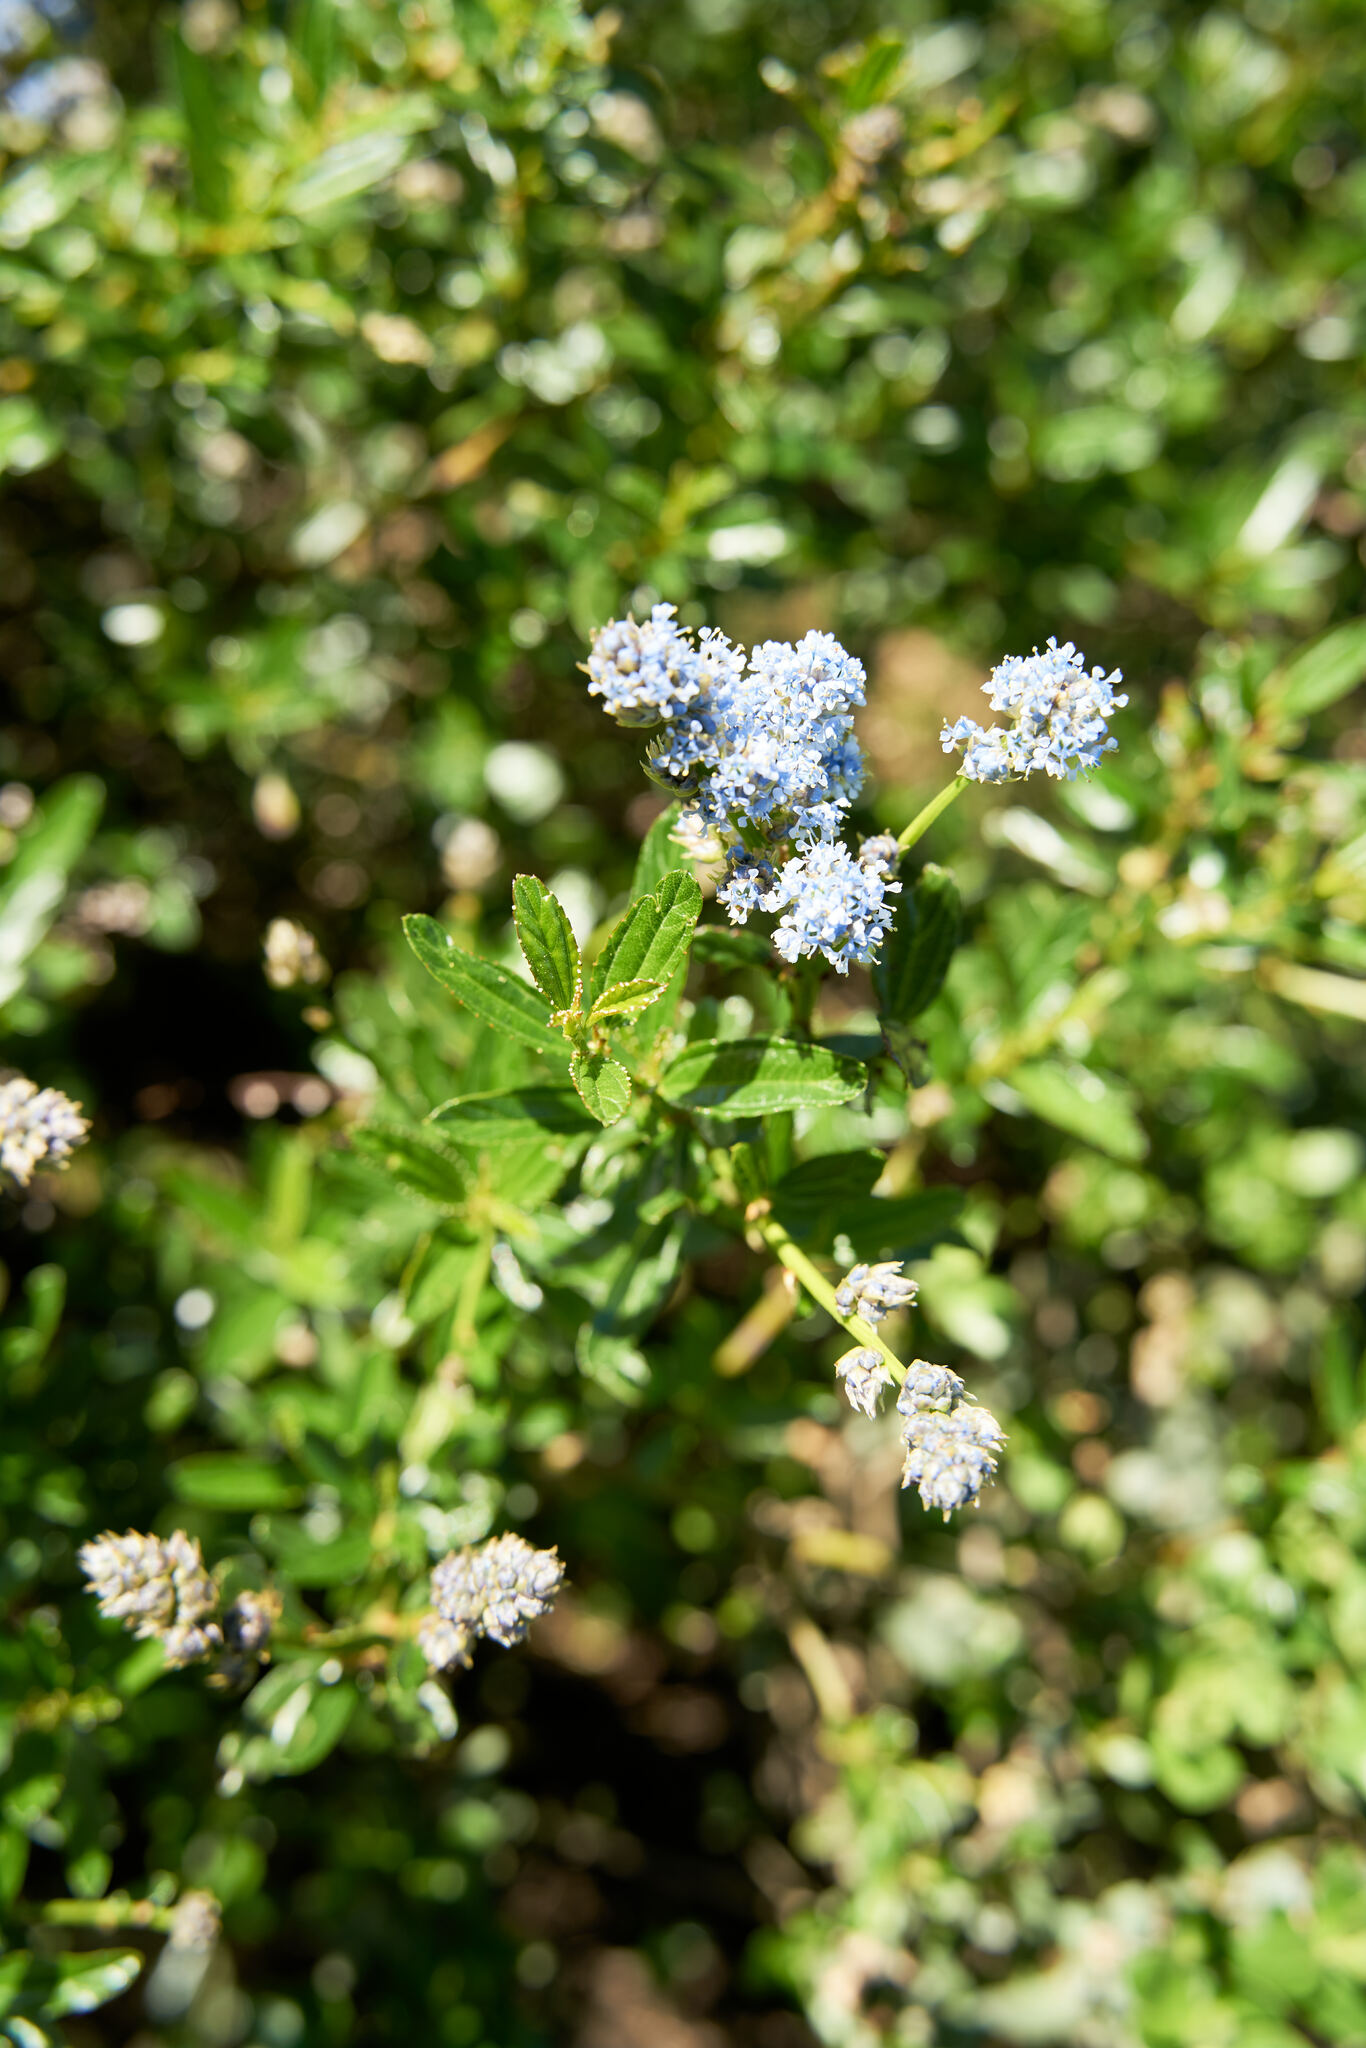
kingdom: Plantae
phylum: Tracheophyta
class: Magnoliopsida
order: Rosales
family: Rhamnaceae
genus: Ceanothus
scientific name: Ceanothus thyrsiflorus
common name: California-lilac
